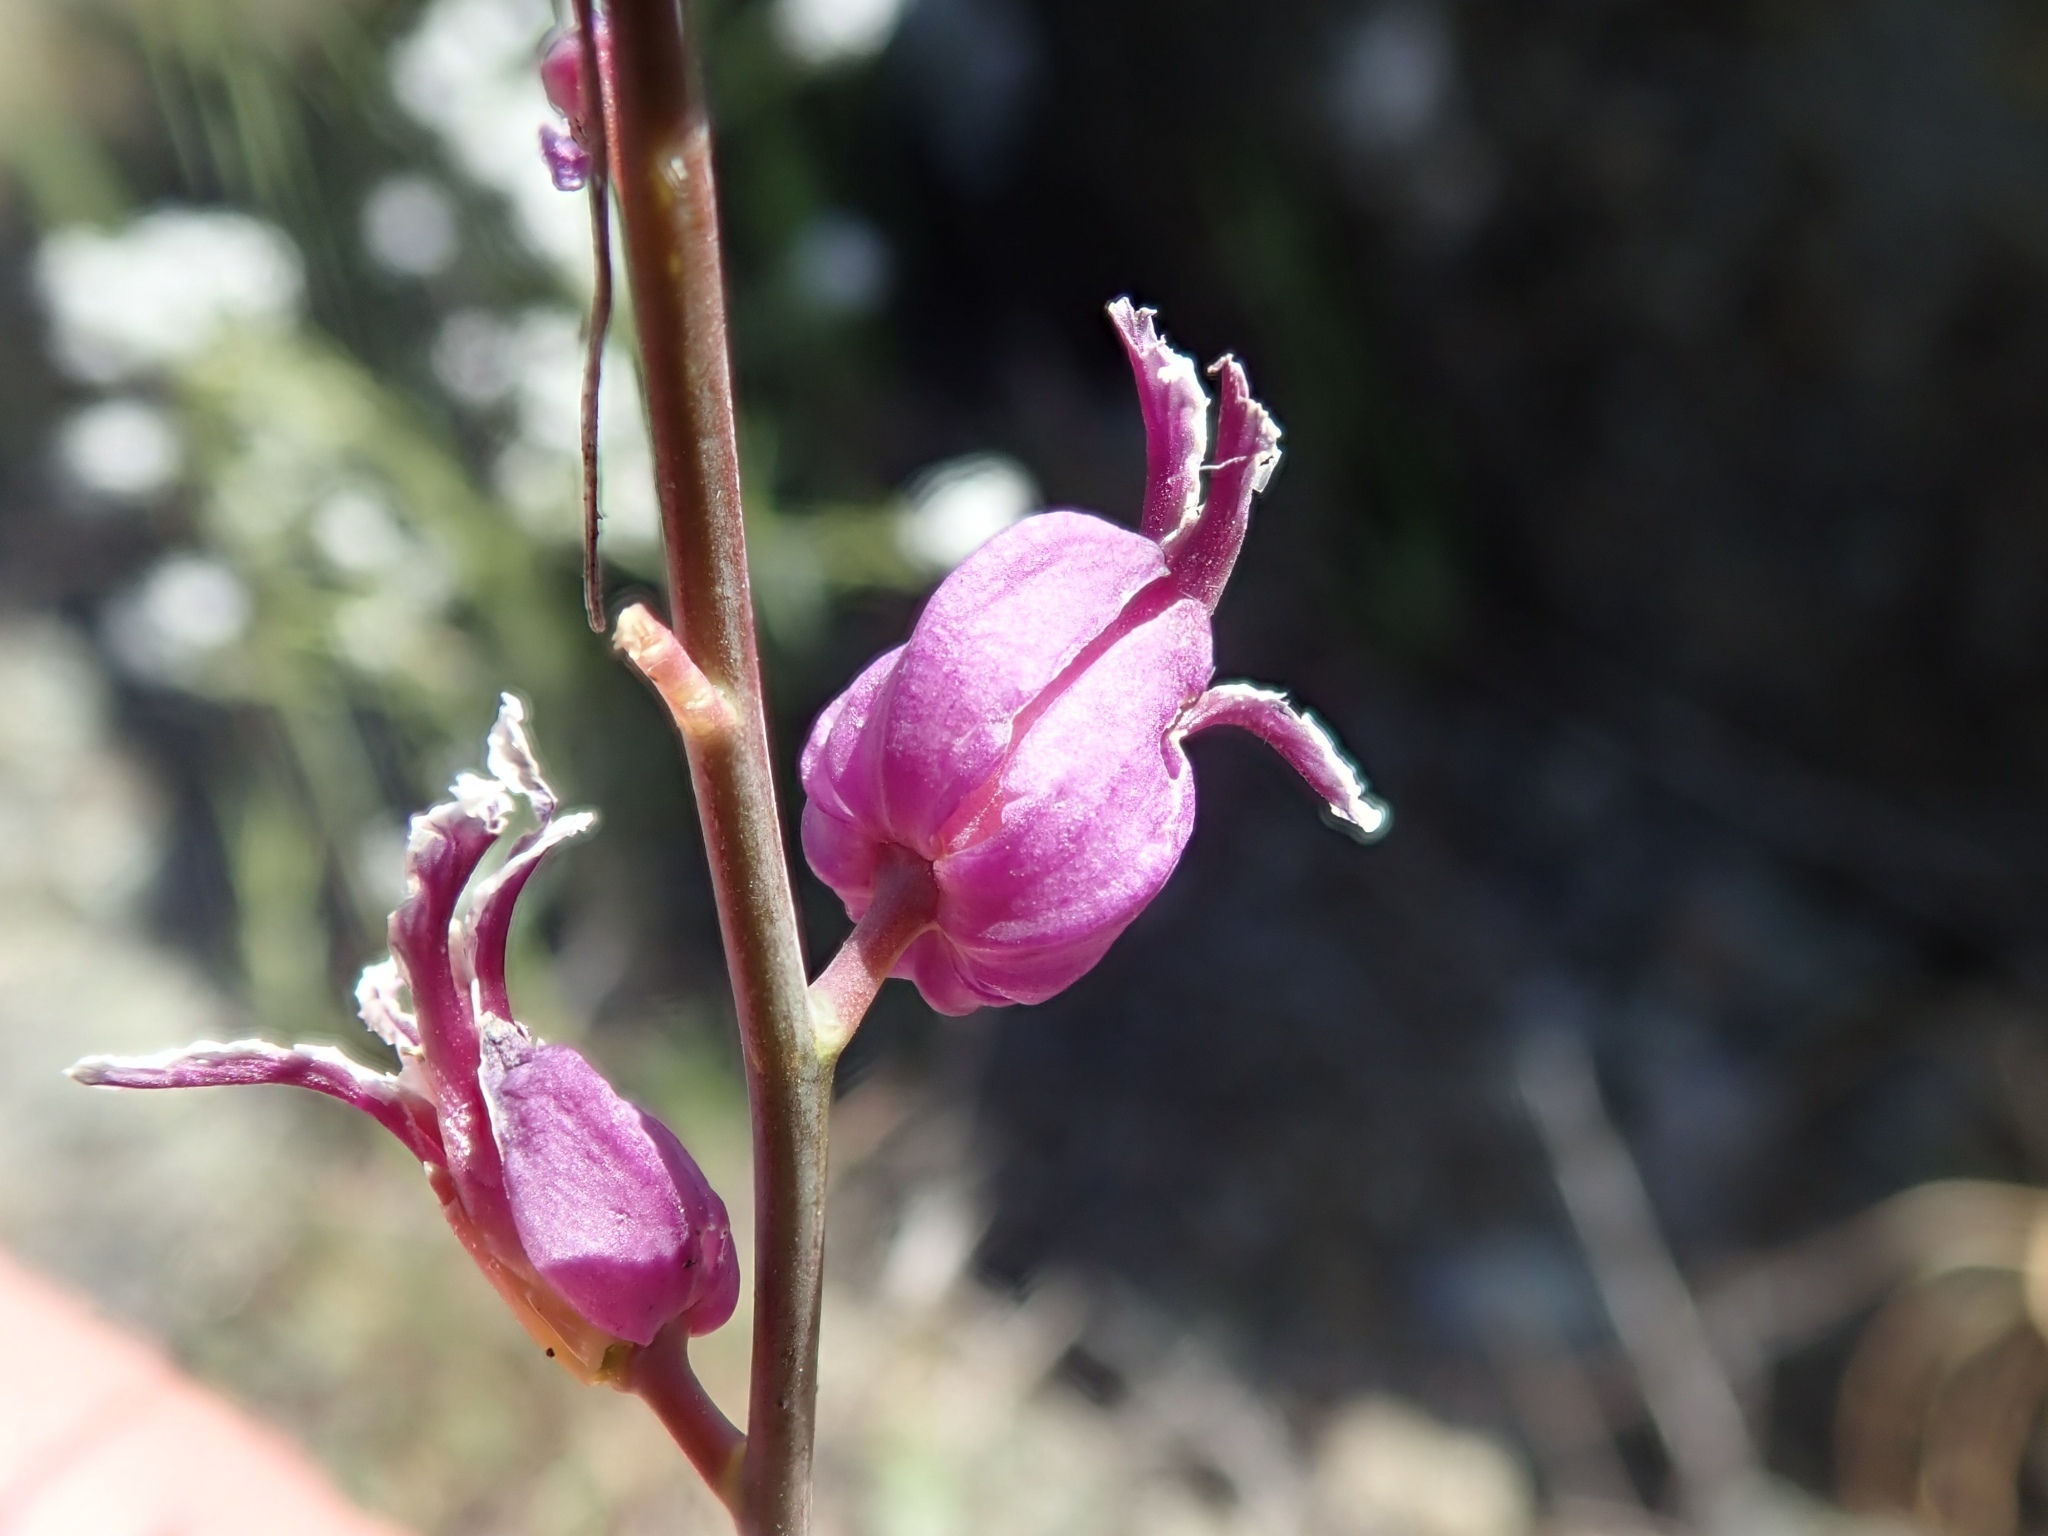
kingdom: Plantae
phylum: Tracheophyta
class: Magnoliopsida
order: Brassicales
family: Brassicaceae
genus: Streptanthus
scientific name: Streptanthus glandulosus
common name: Jewel-flower
